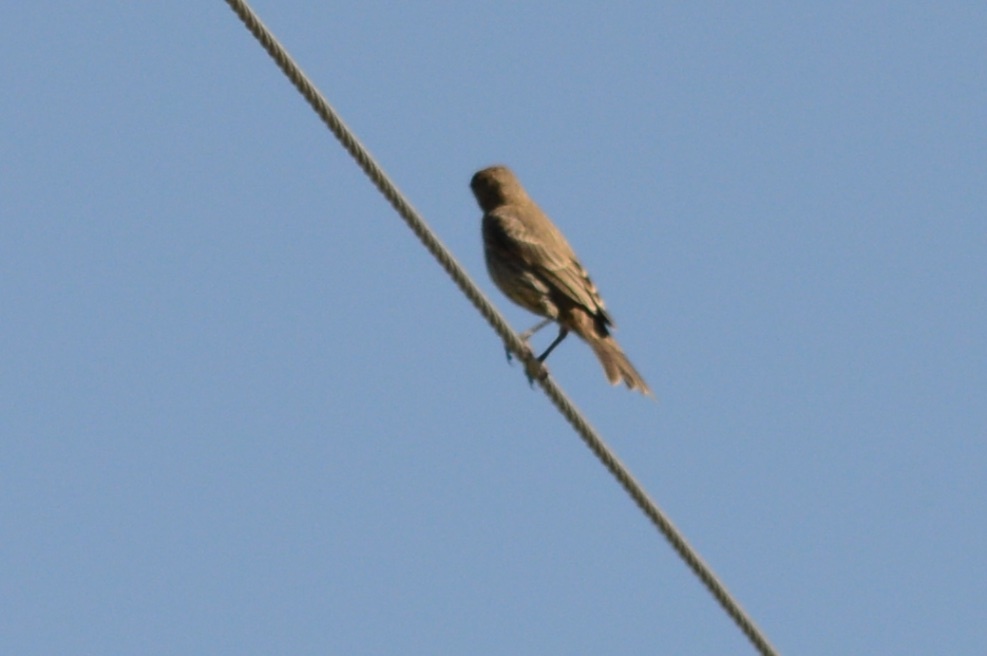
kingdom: Animalia
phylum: Chordata
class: Aves
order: Passeriformes
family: Turdidae
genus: Sialia
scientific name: Sialia mexicana
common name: Western bluebird
